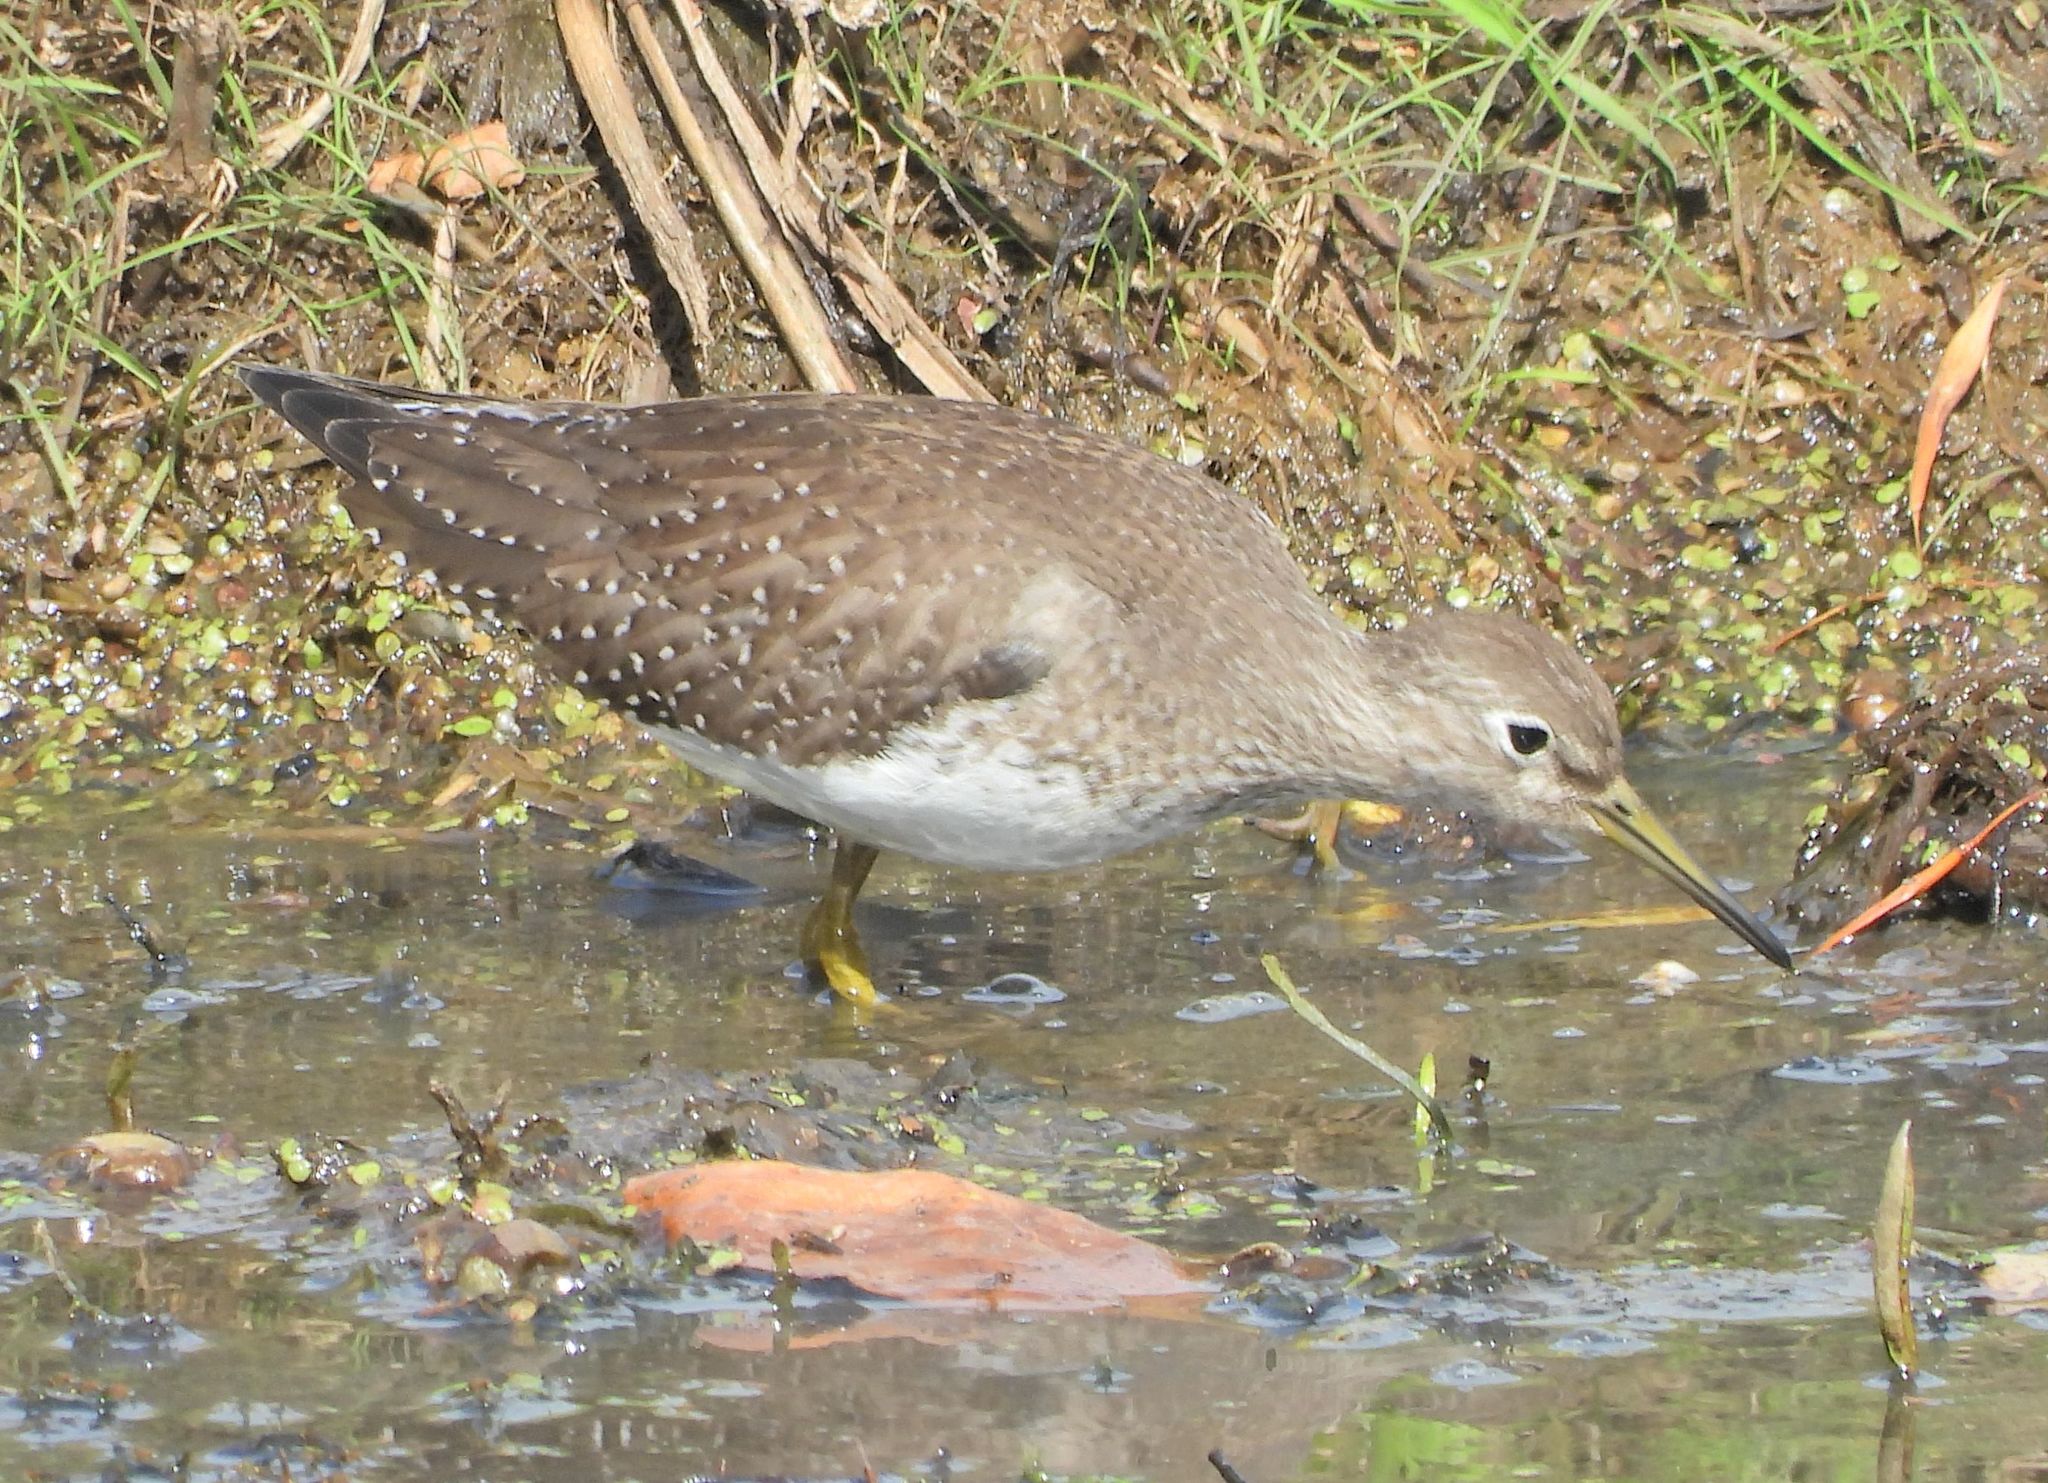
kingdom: Animalia
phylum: Chordata
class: Aves
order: Charadriiformes
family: Scolopacidae
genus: Tringa
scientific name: Tringa solitaria
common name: Solitary sandpiper
